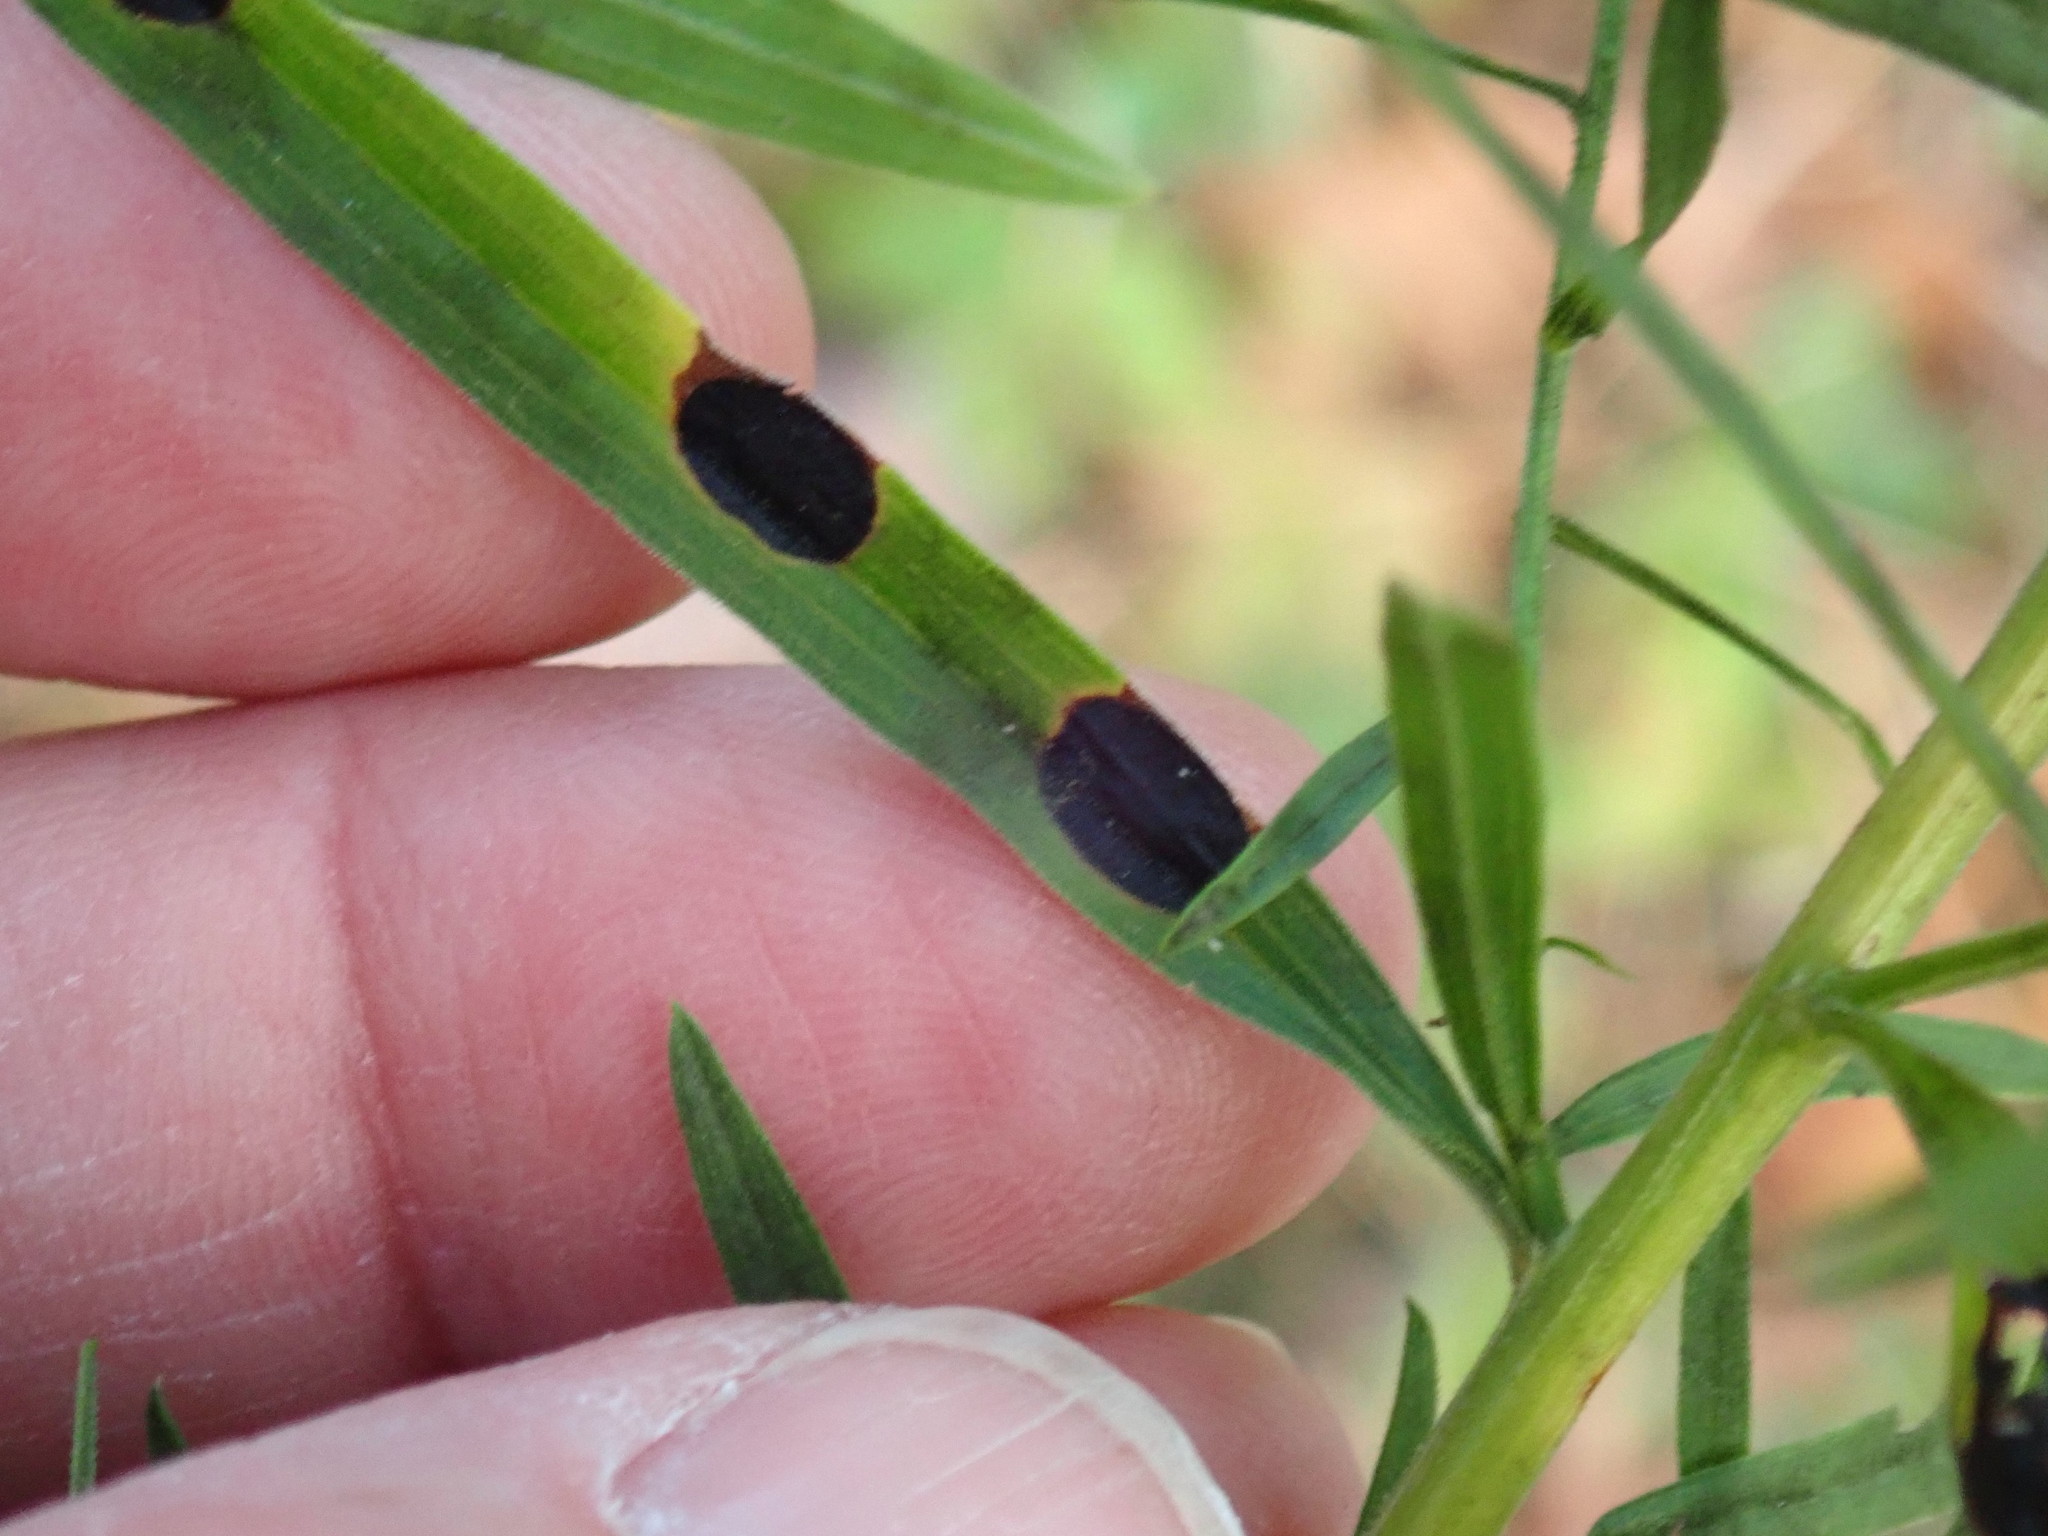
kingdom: Animalia
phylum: Arthropoda
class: Insecta
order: Diptera
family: Cecidomyiidae
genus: Asteromyia
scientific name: Asteromyia euthamiae
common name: Euthamia leaf gall midge
